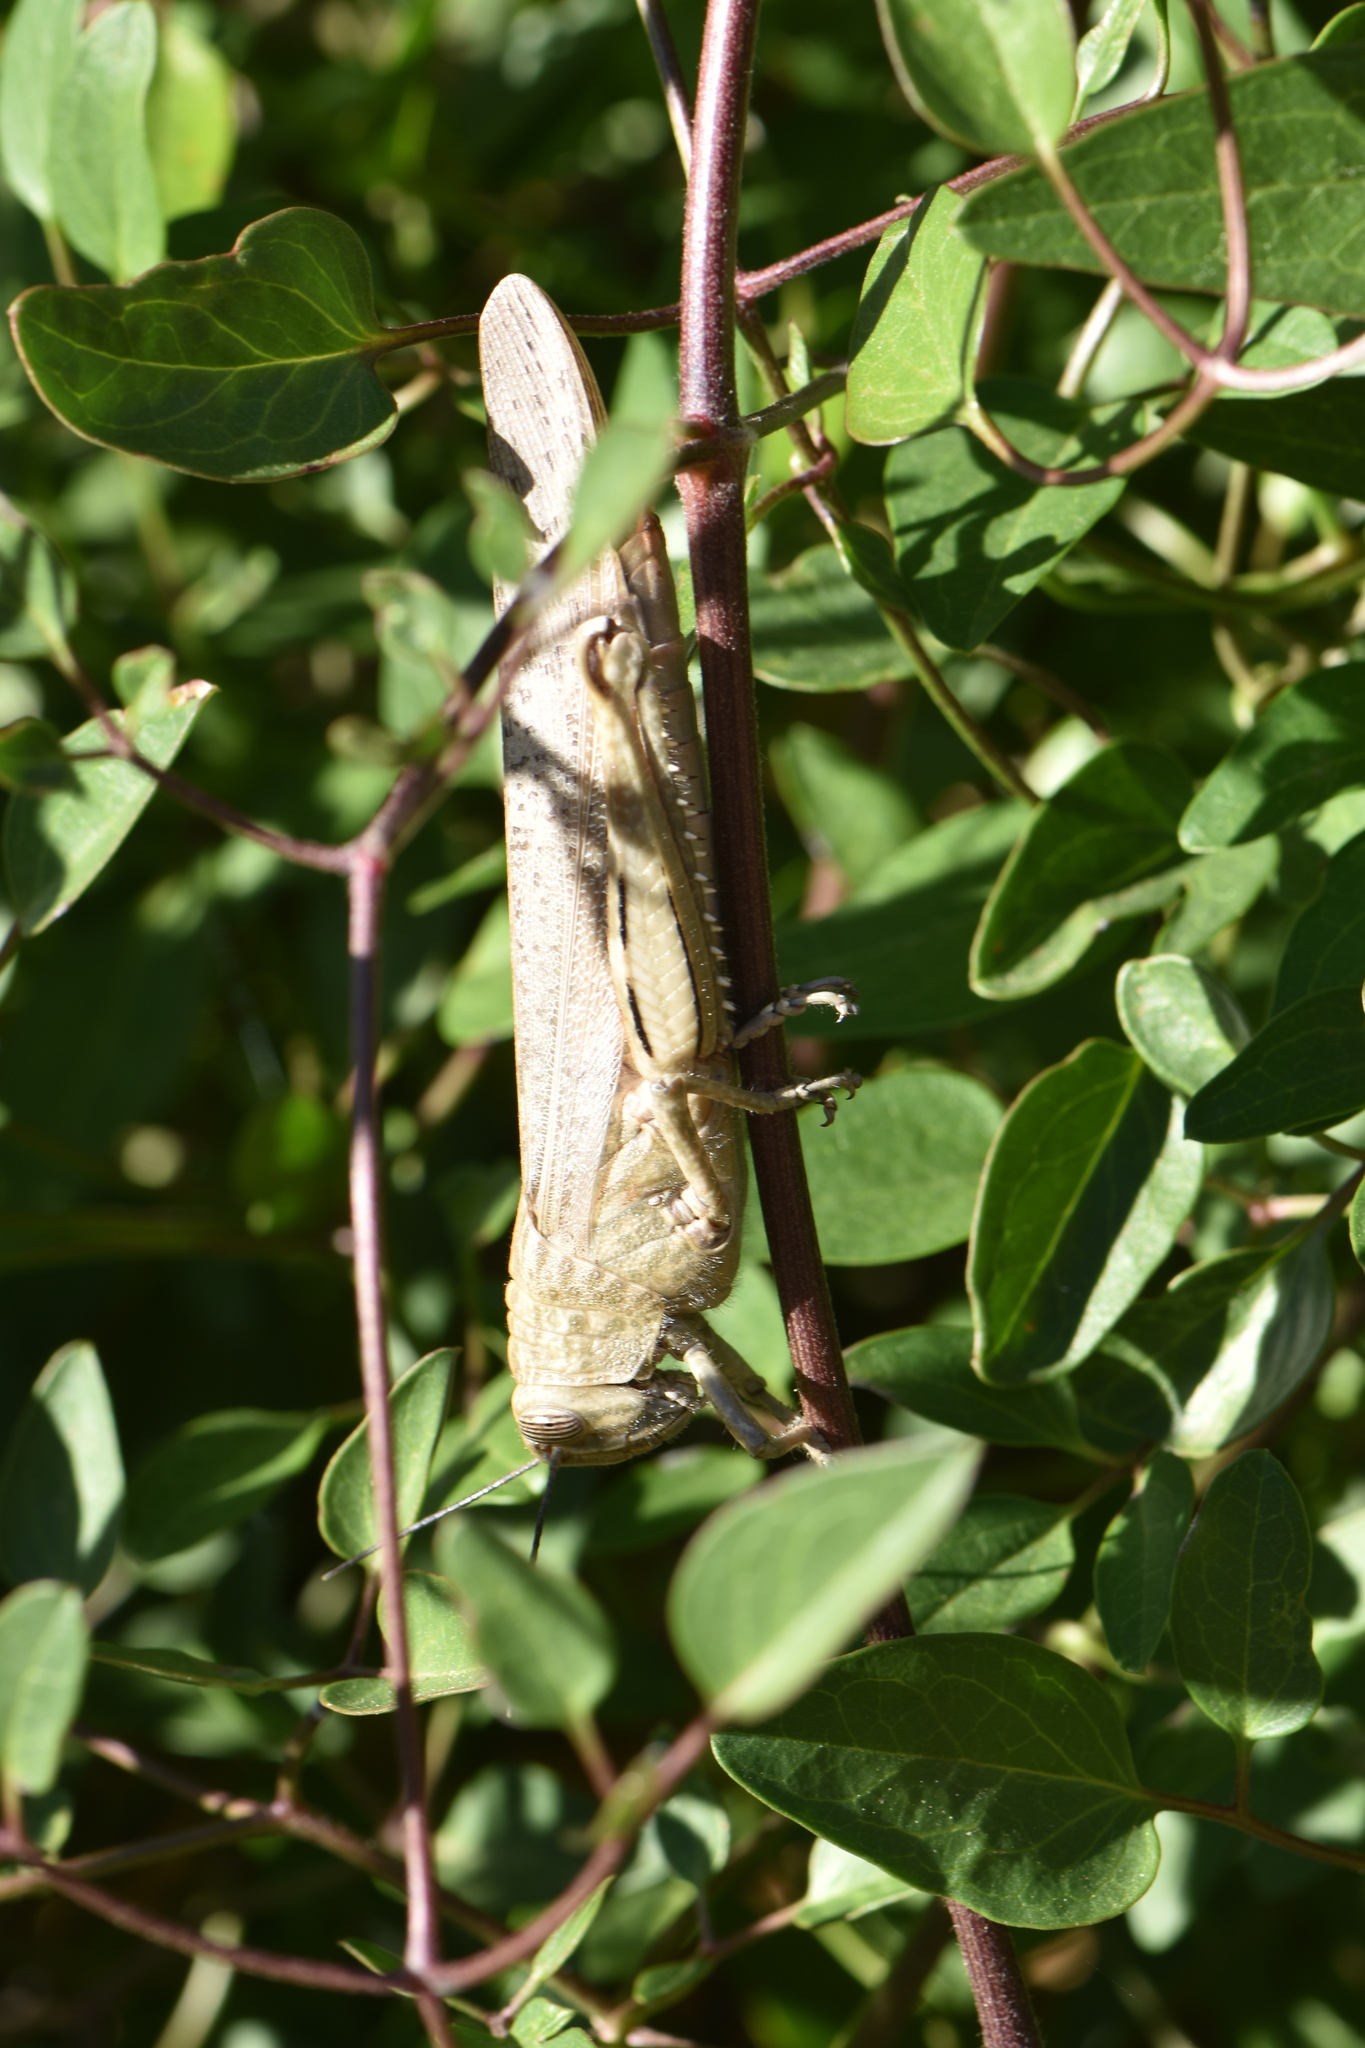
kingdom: Animalia
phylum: Arthropoda
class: Insecta
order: Orthoptera
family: Acrididae
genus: Anacridium
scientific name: Anacridium aegyptium
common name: Egyptian grasshopper
